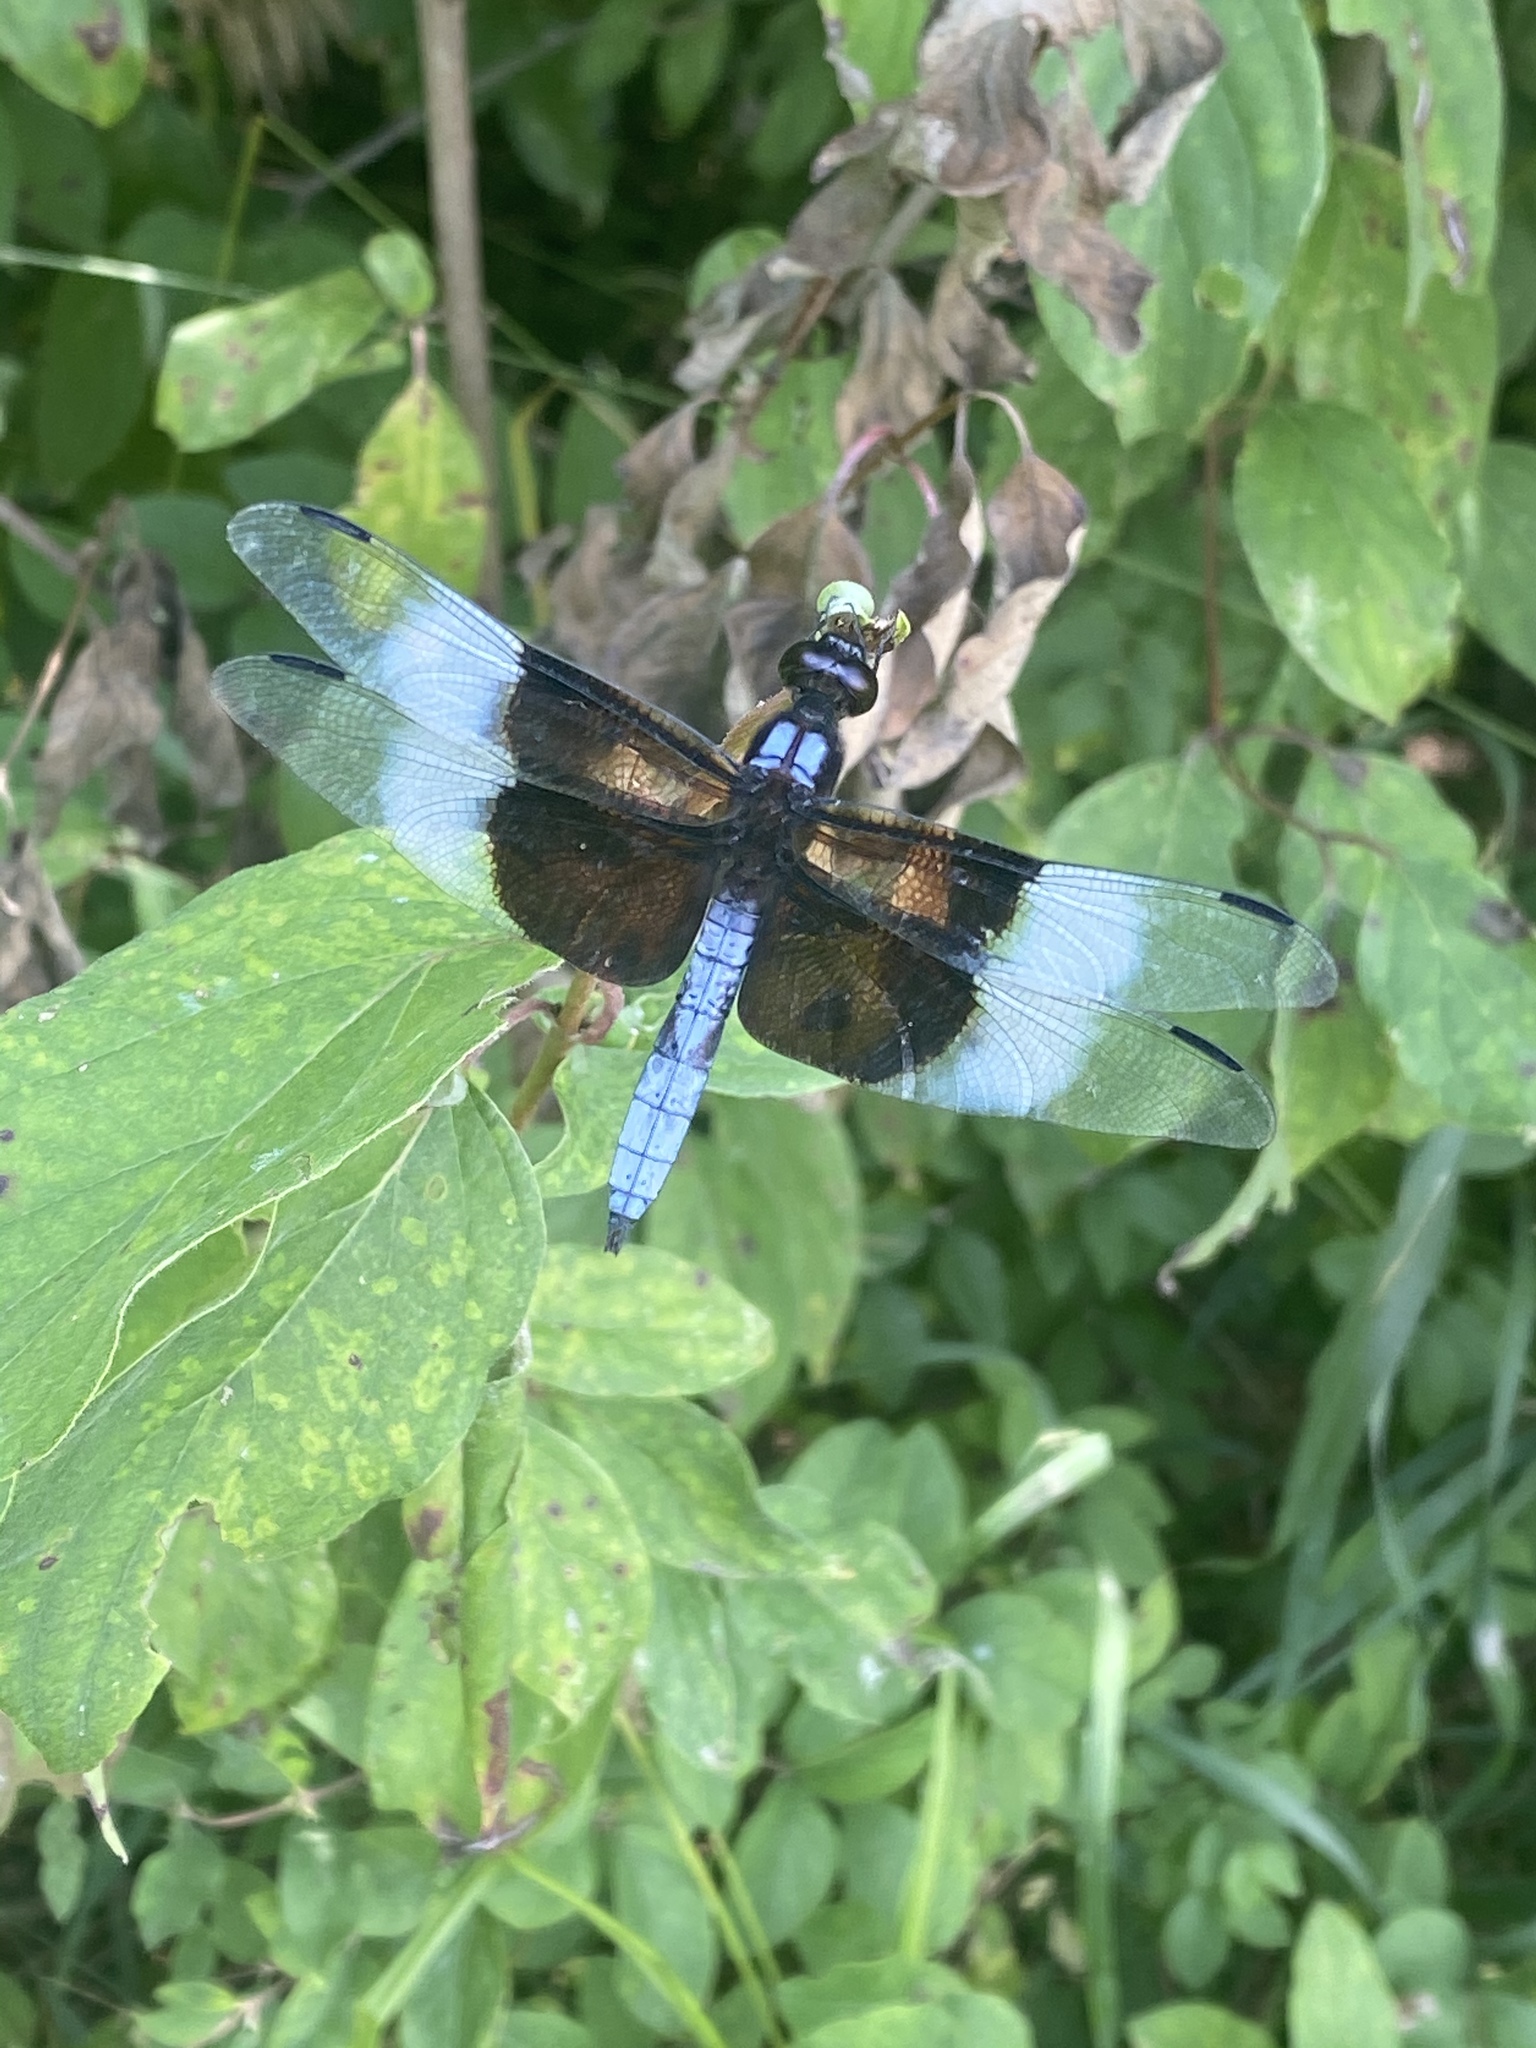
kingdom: Animalia
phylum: Arthropoda
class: Insecta
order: Odonata
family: Libellulidae
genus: Libellula
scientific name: Libellula luctuosa
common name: Widow skimmer
